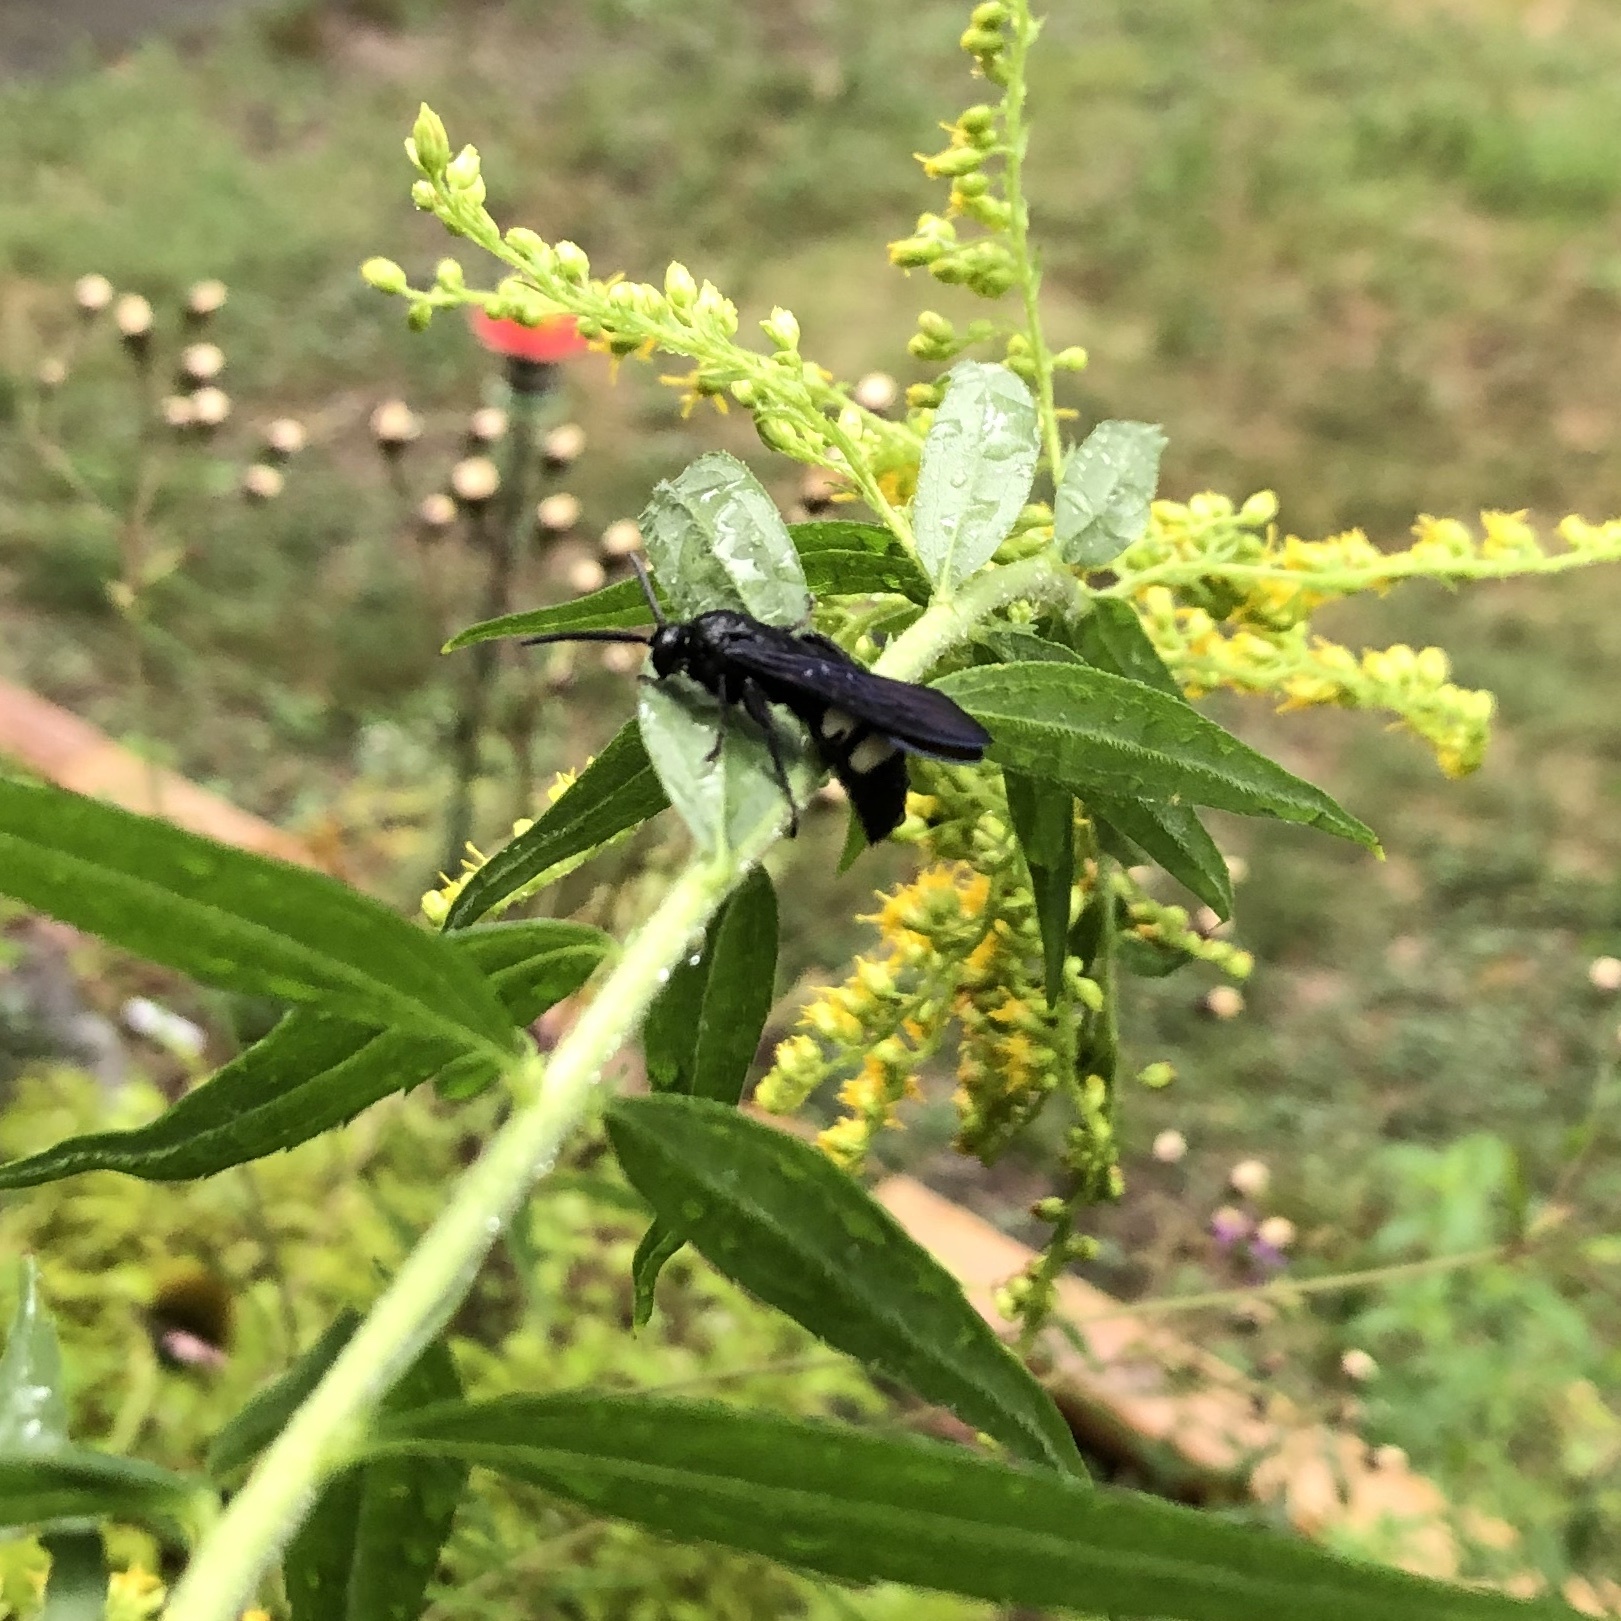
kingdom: Animalia
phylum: Arthropoda
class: Insecta
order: Hymenoptera
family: Scoliidae
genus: Scolia
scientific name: Scolia bicincta
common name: Double-banded scoliid wasp
